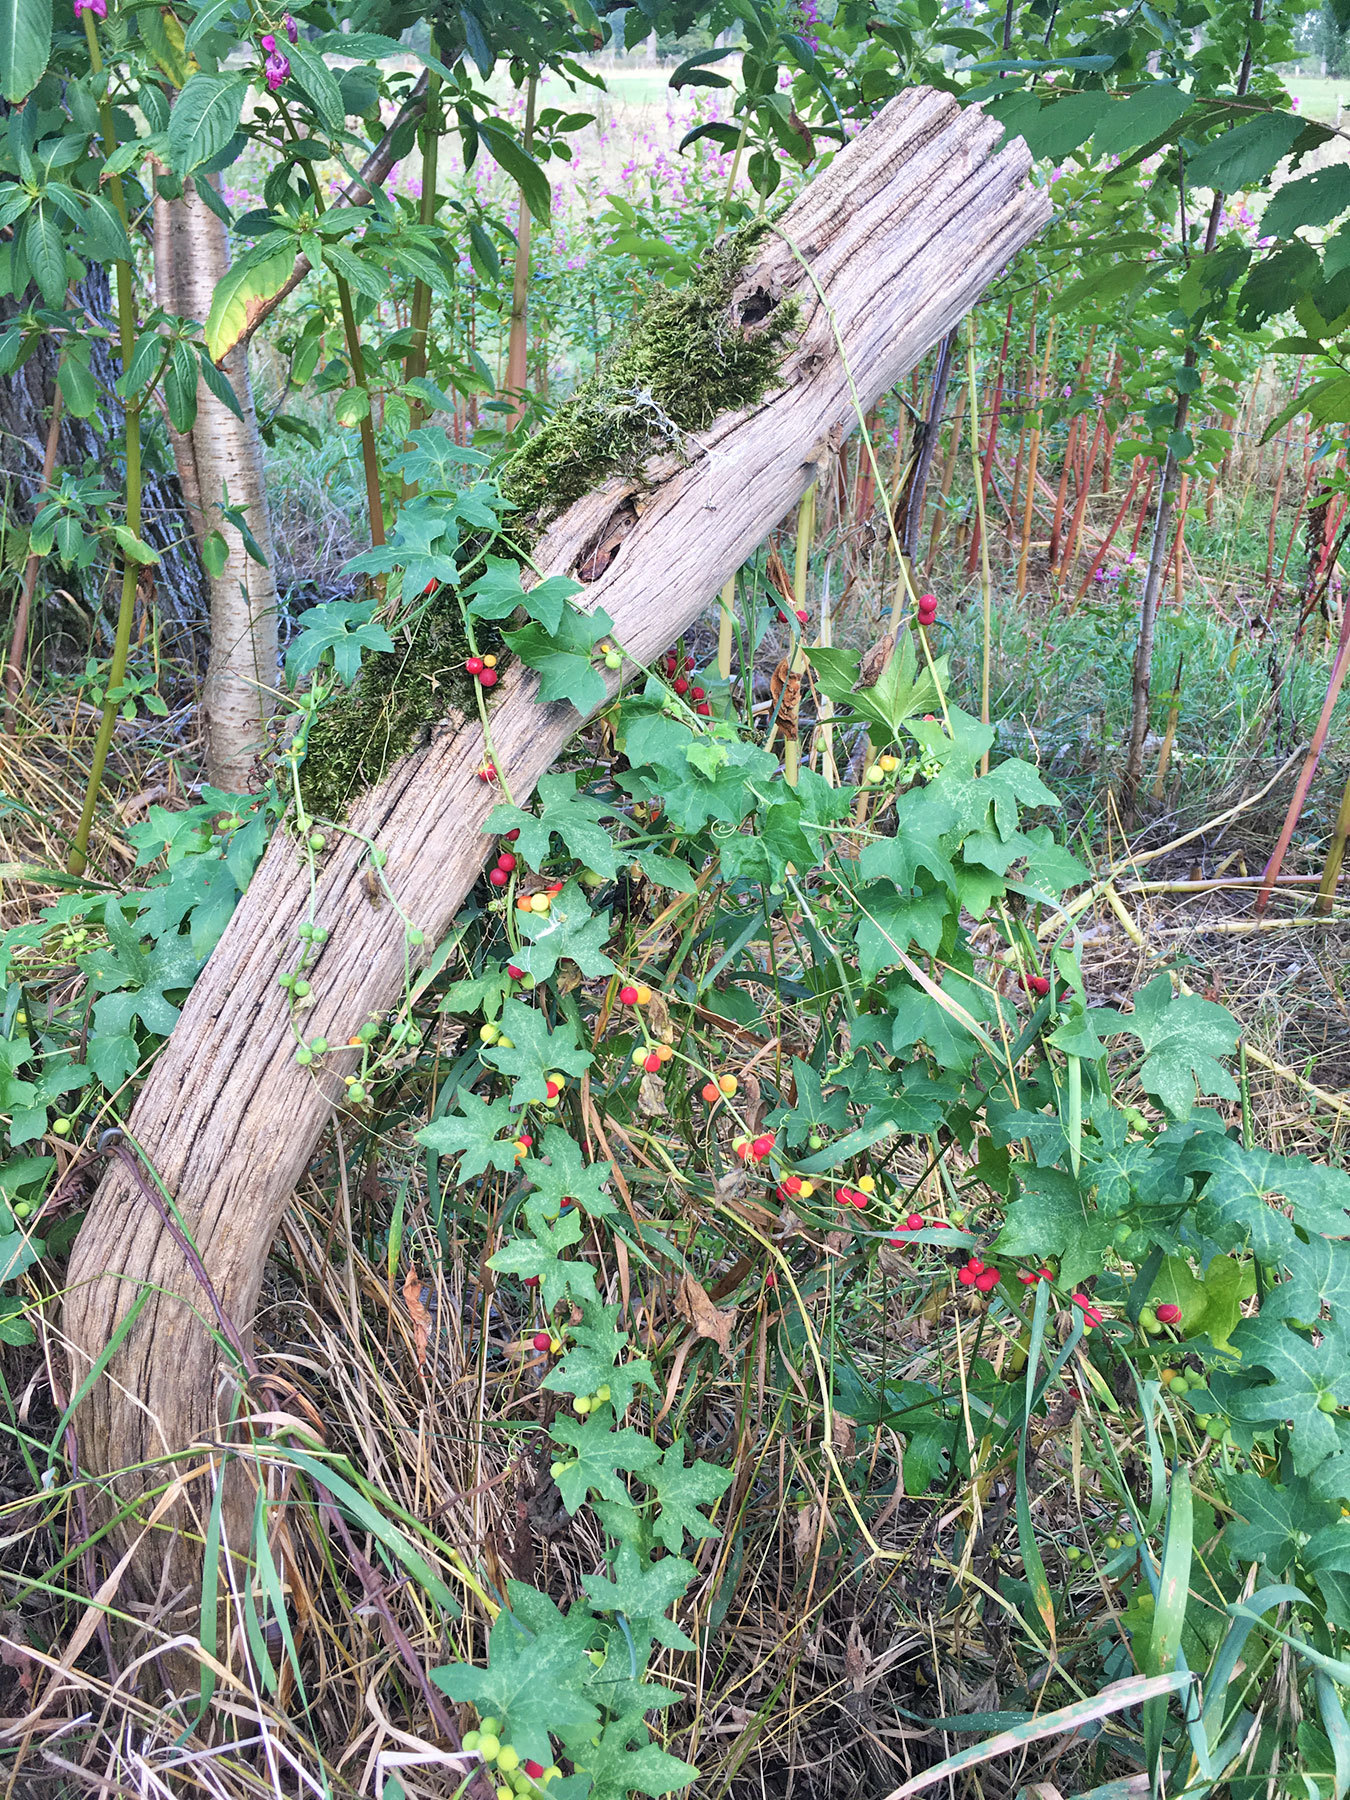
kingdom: Plantae
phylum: Tracheophyta
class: Magnoliopsida
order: Cucurbitales
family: Cucurbitaceae
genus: Bryonia
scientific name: Bryonia dioica
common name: White bryony
